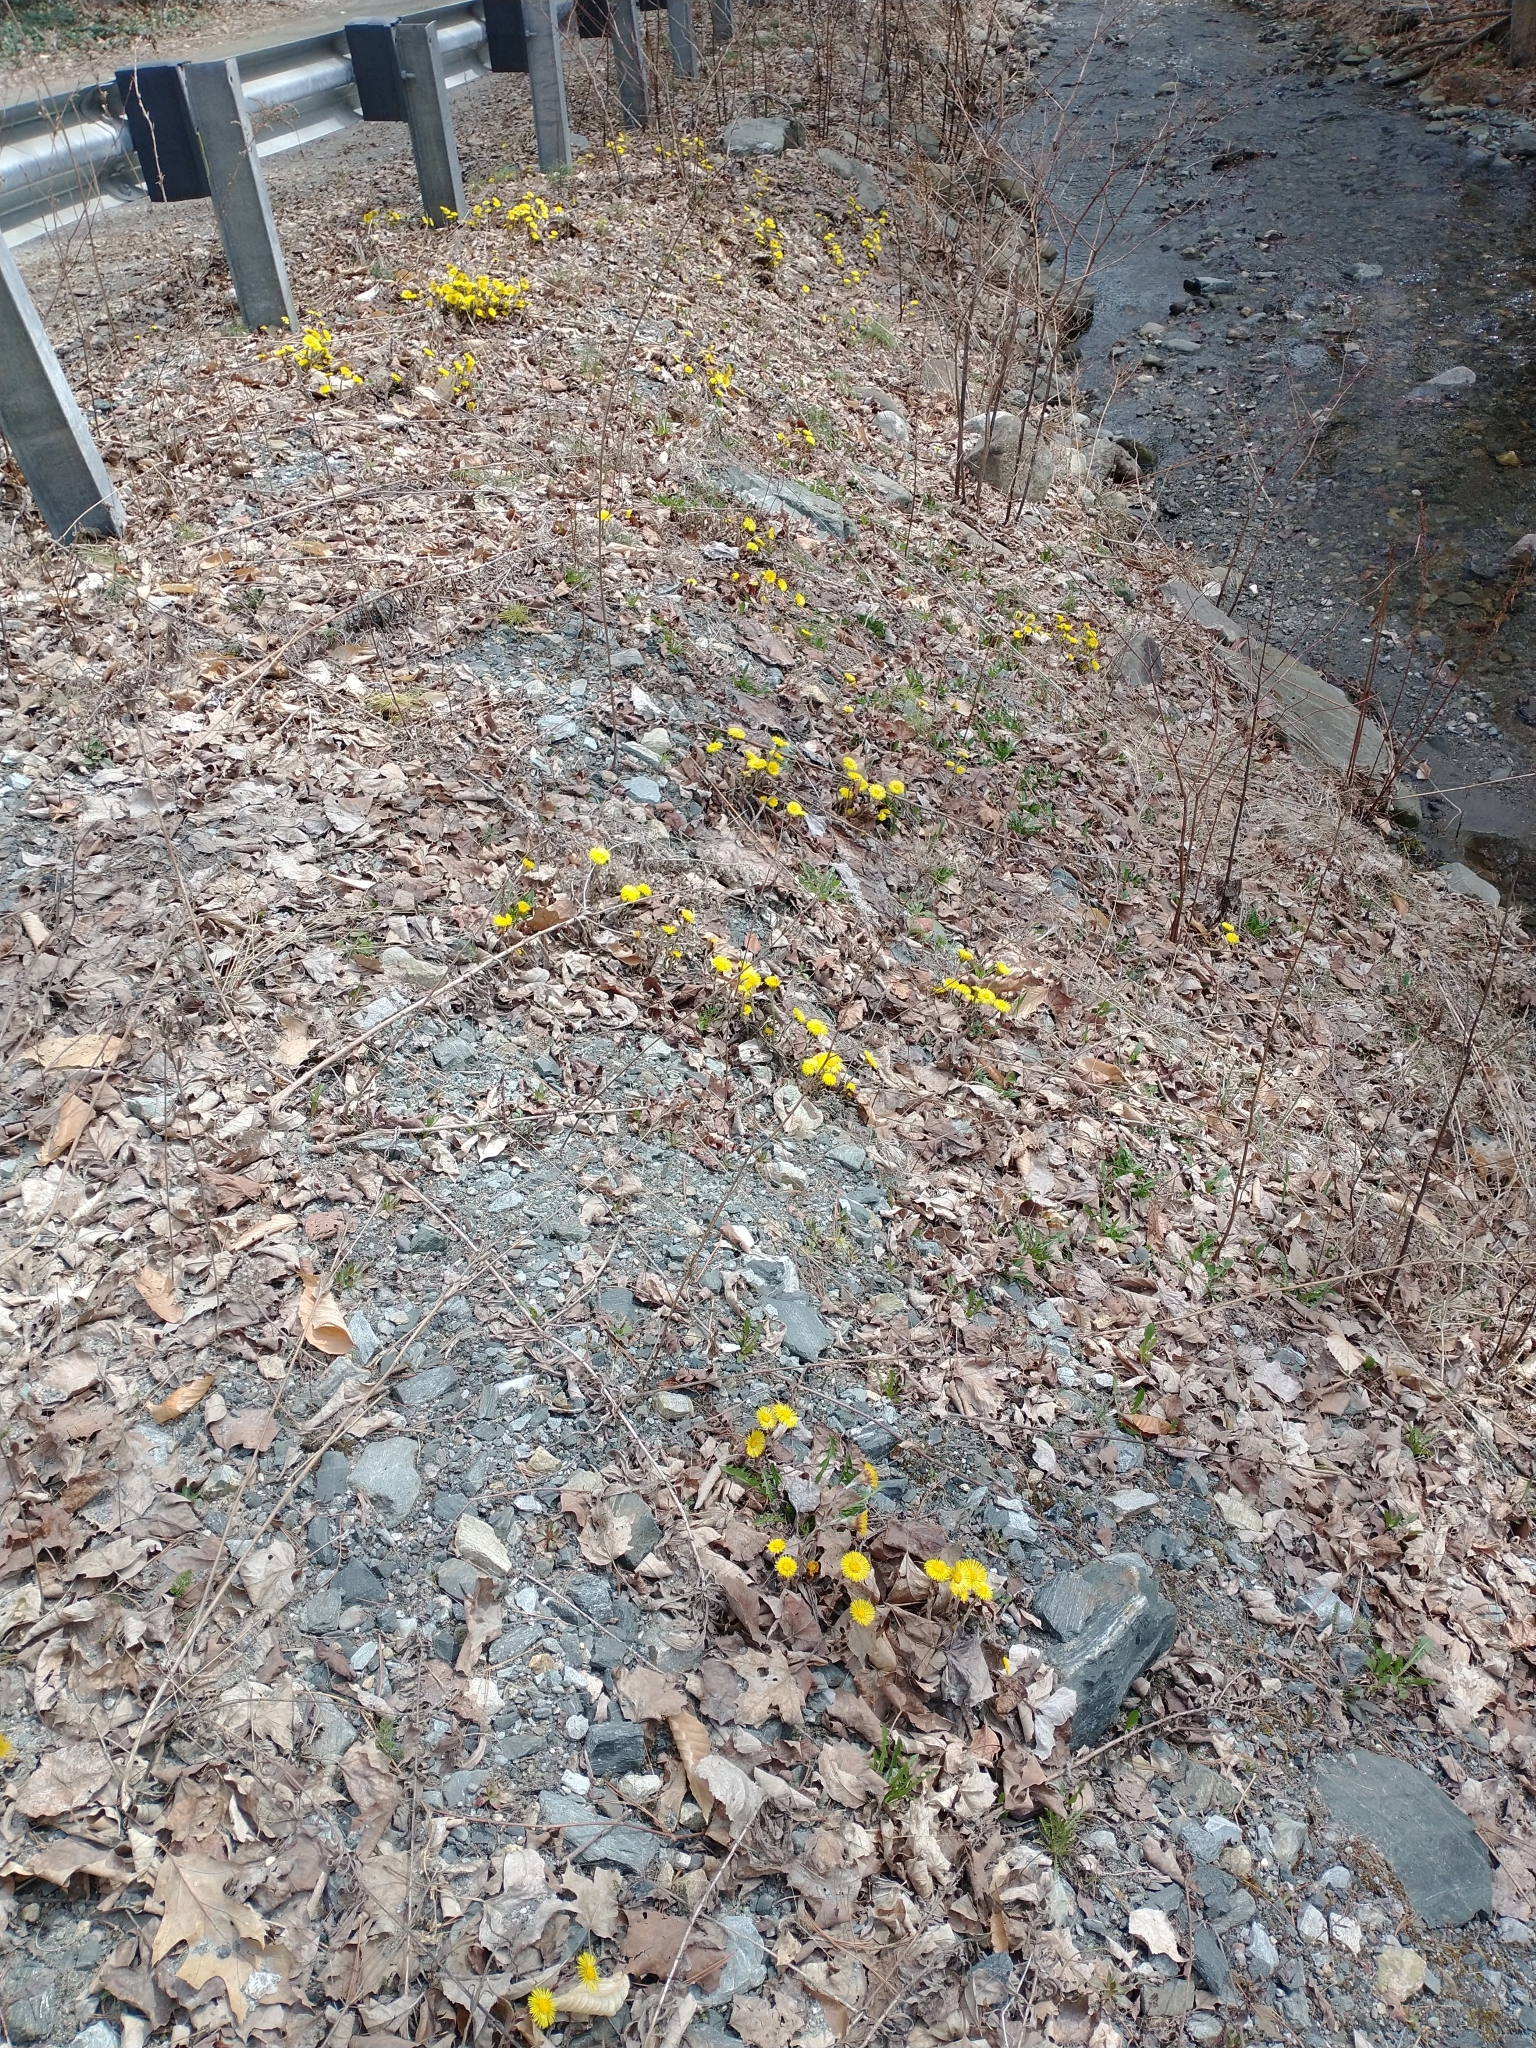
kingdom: Plantae
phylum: Tracheophyta
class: Magnoliopsida
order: Asterales
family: Asteraceae
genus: Tussilago
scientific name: Tussilago farfara
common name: Coltsfoot
